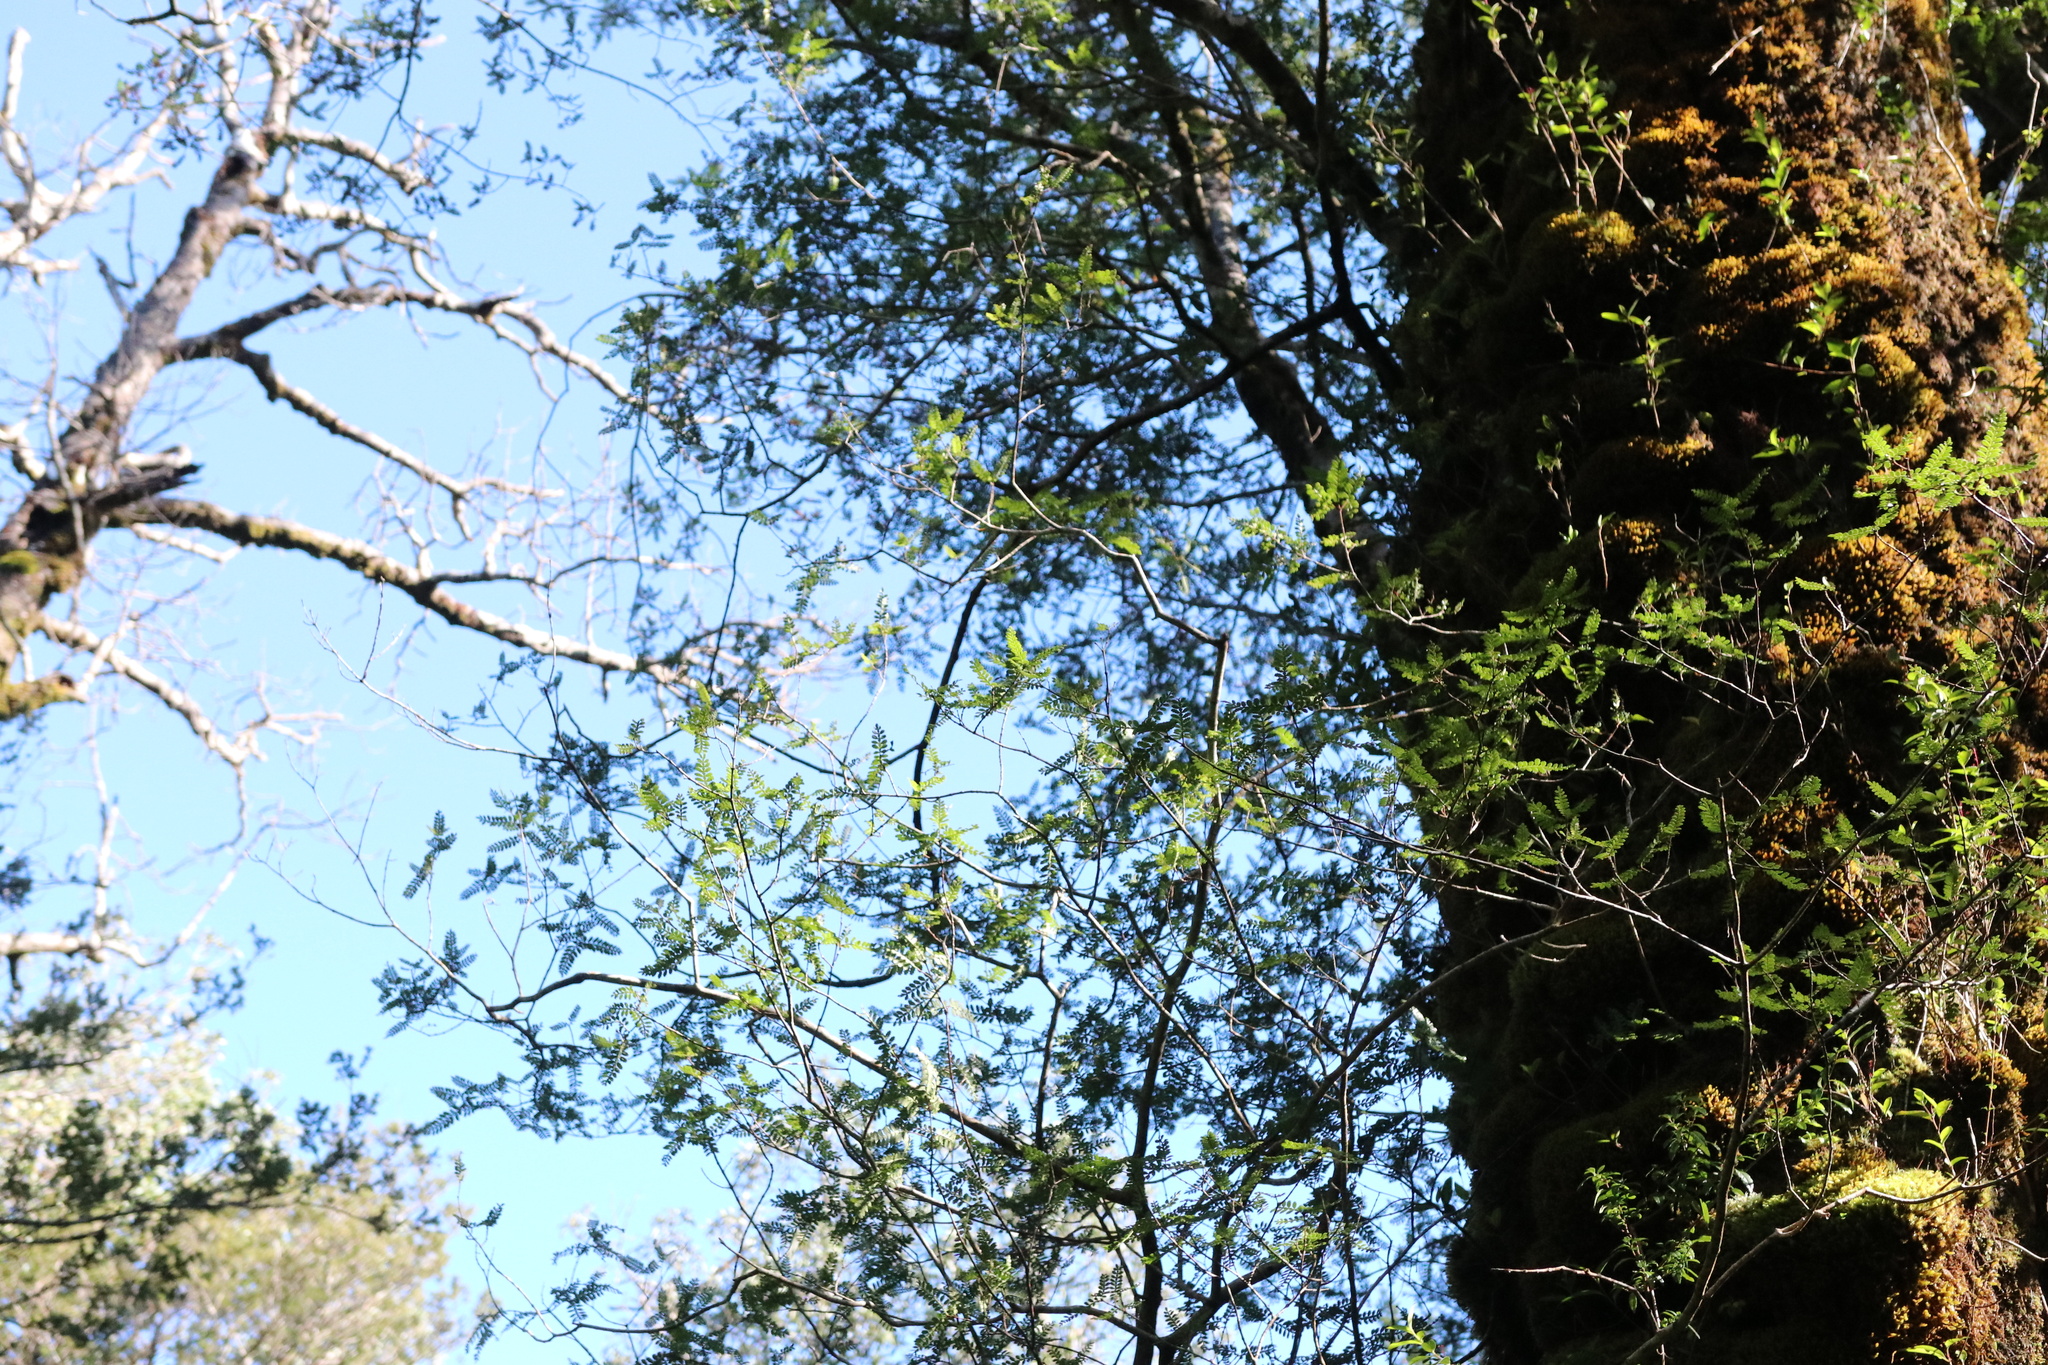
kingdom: Plantae
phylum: Tracheophyta
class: Magnoliopsida
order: Oxalidales
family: Cunoniaceae
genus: Weinmannia
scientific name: Weinmannia trichosperma
